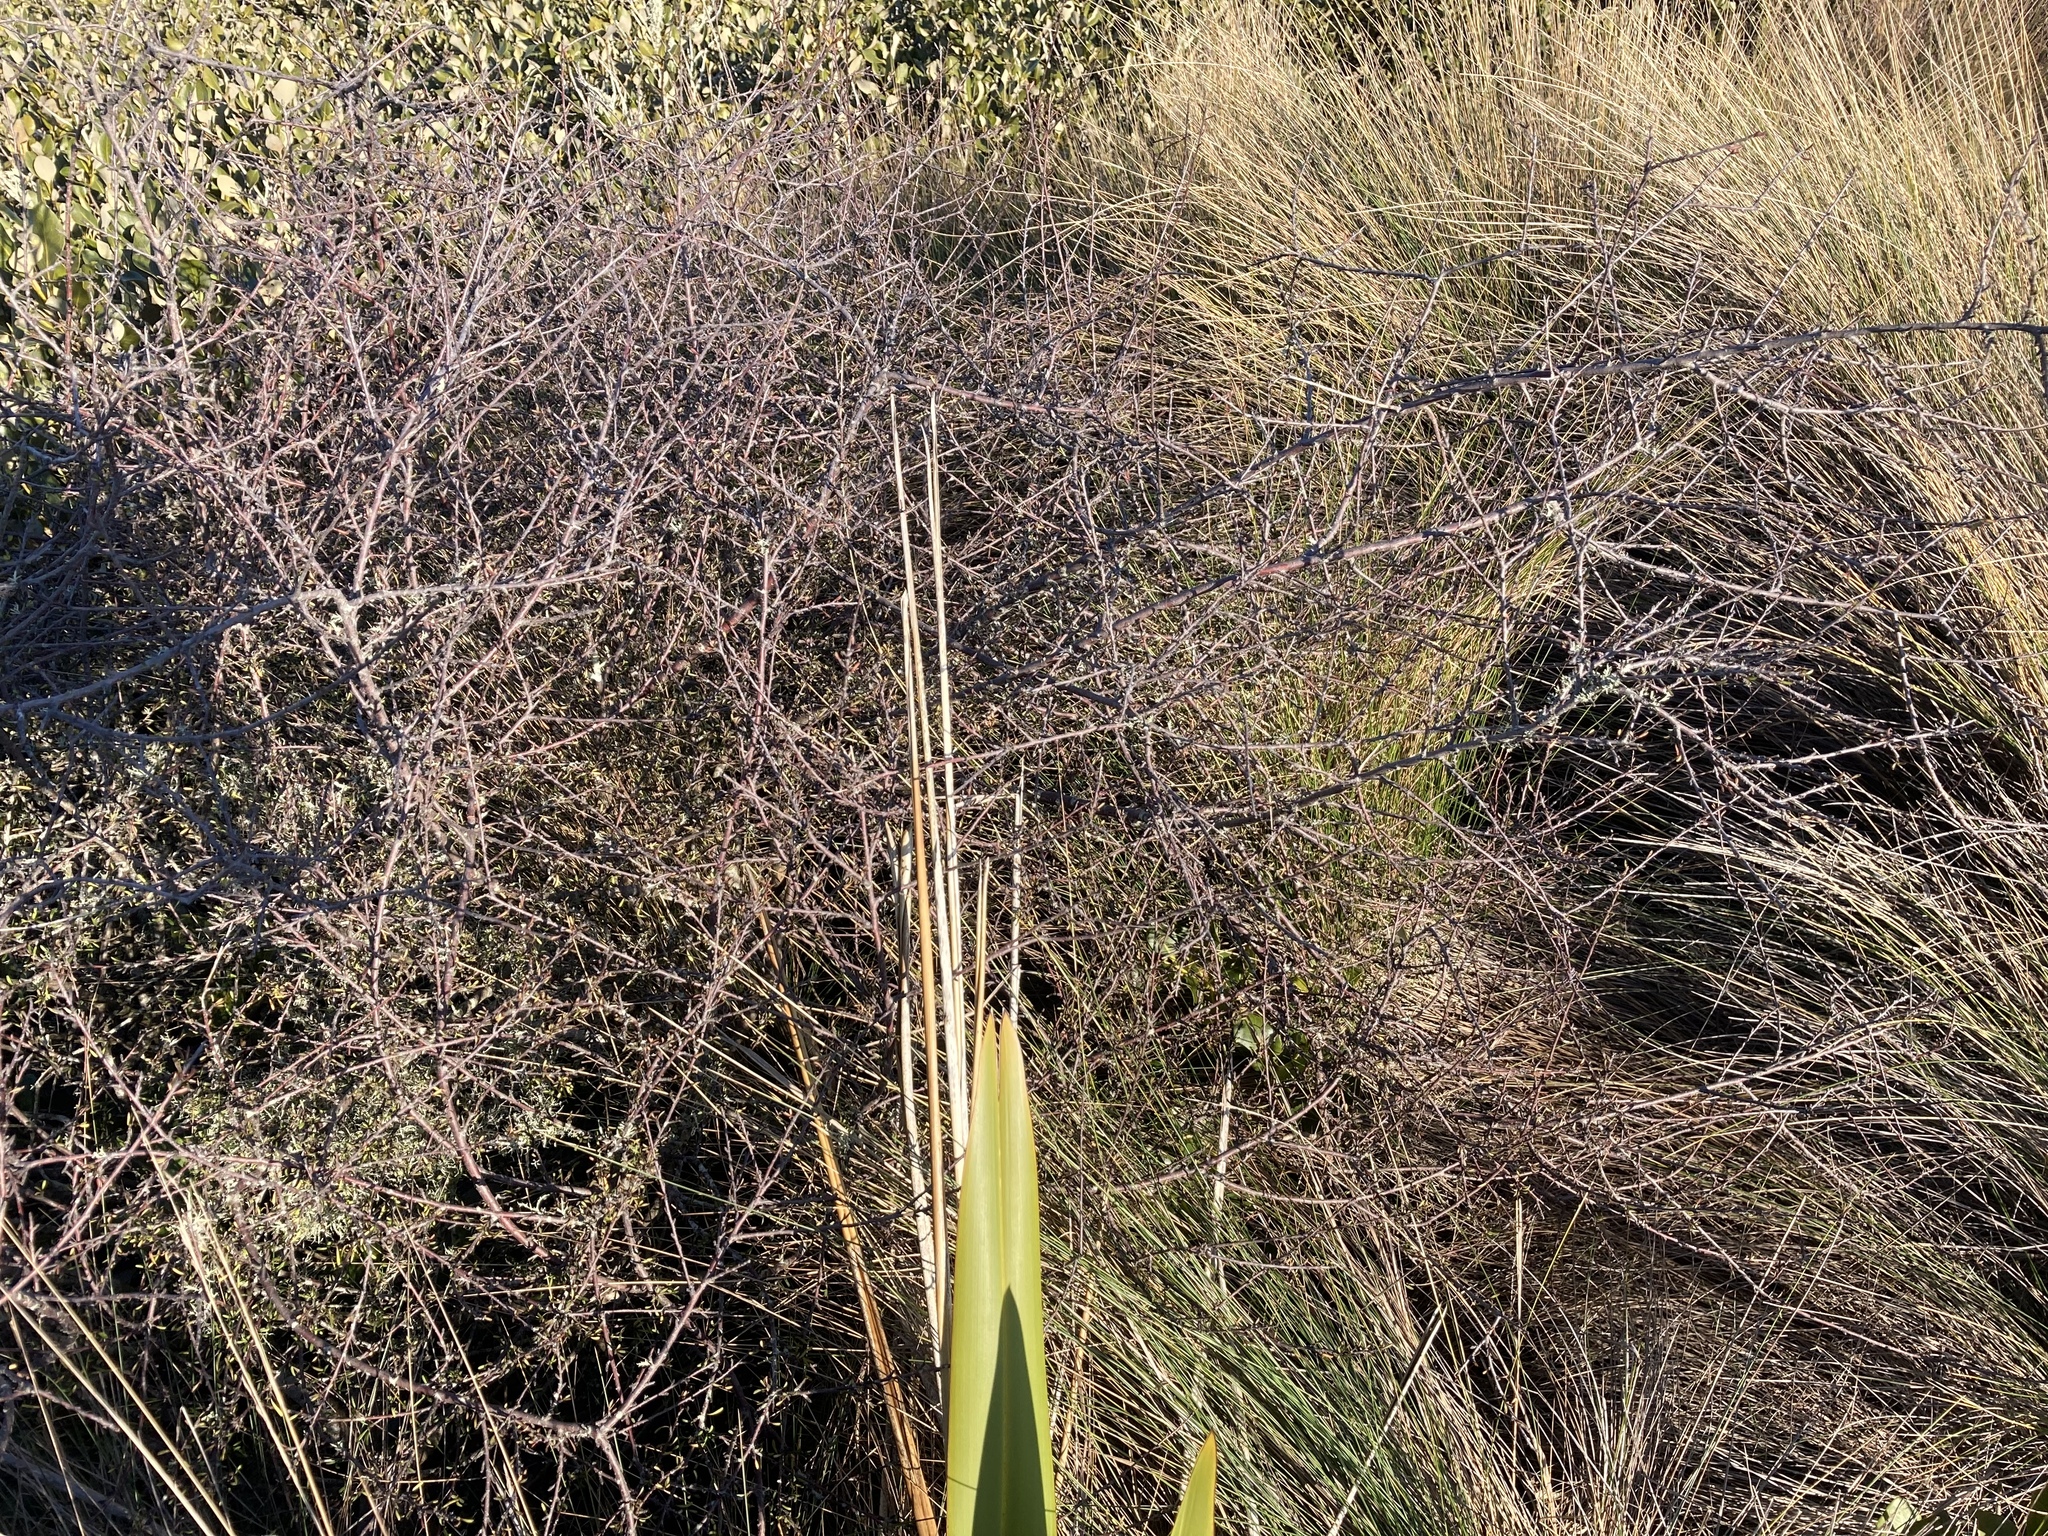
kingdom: Plantae
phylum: Tracheophyta
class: Magnoliopsida
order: Malvales
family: Malvaceae
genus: Plagianthus
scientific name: Plagianthus divaricatus
